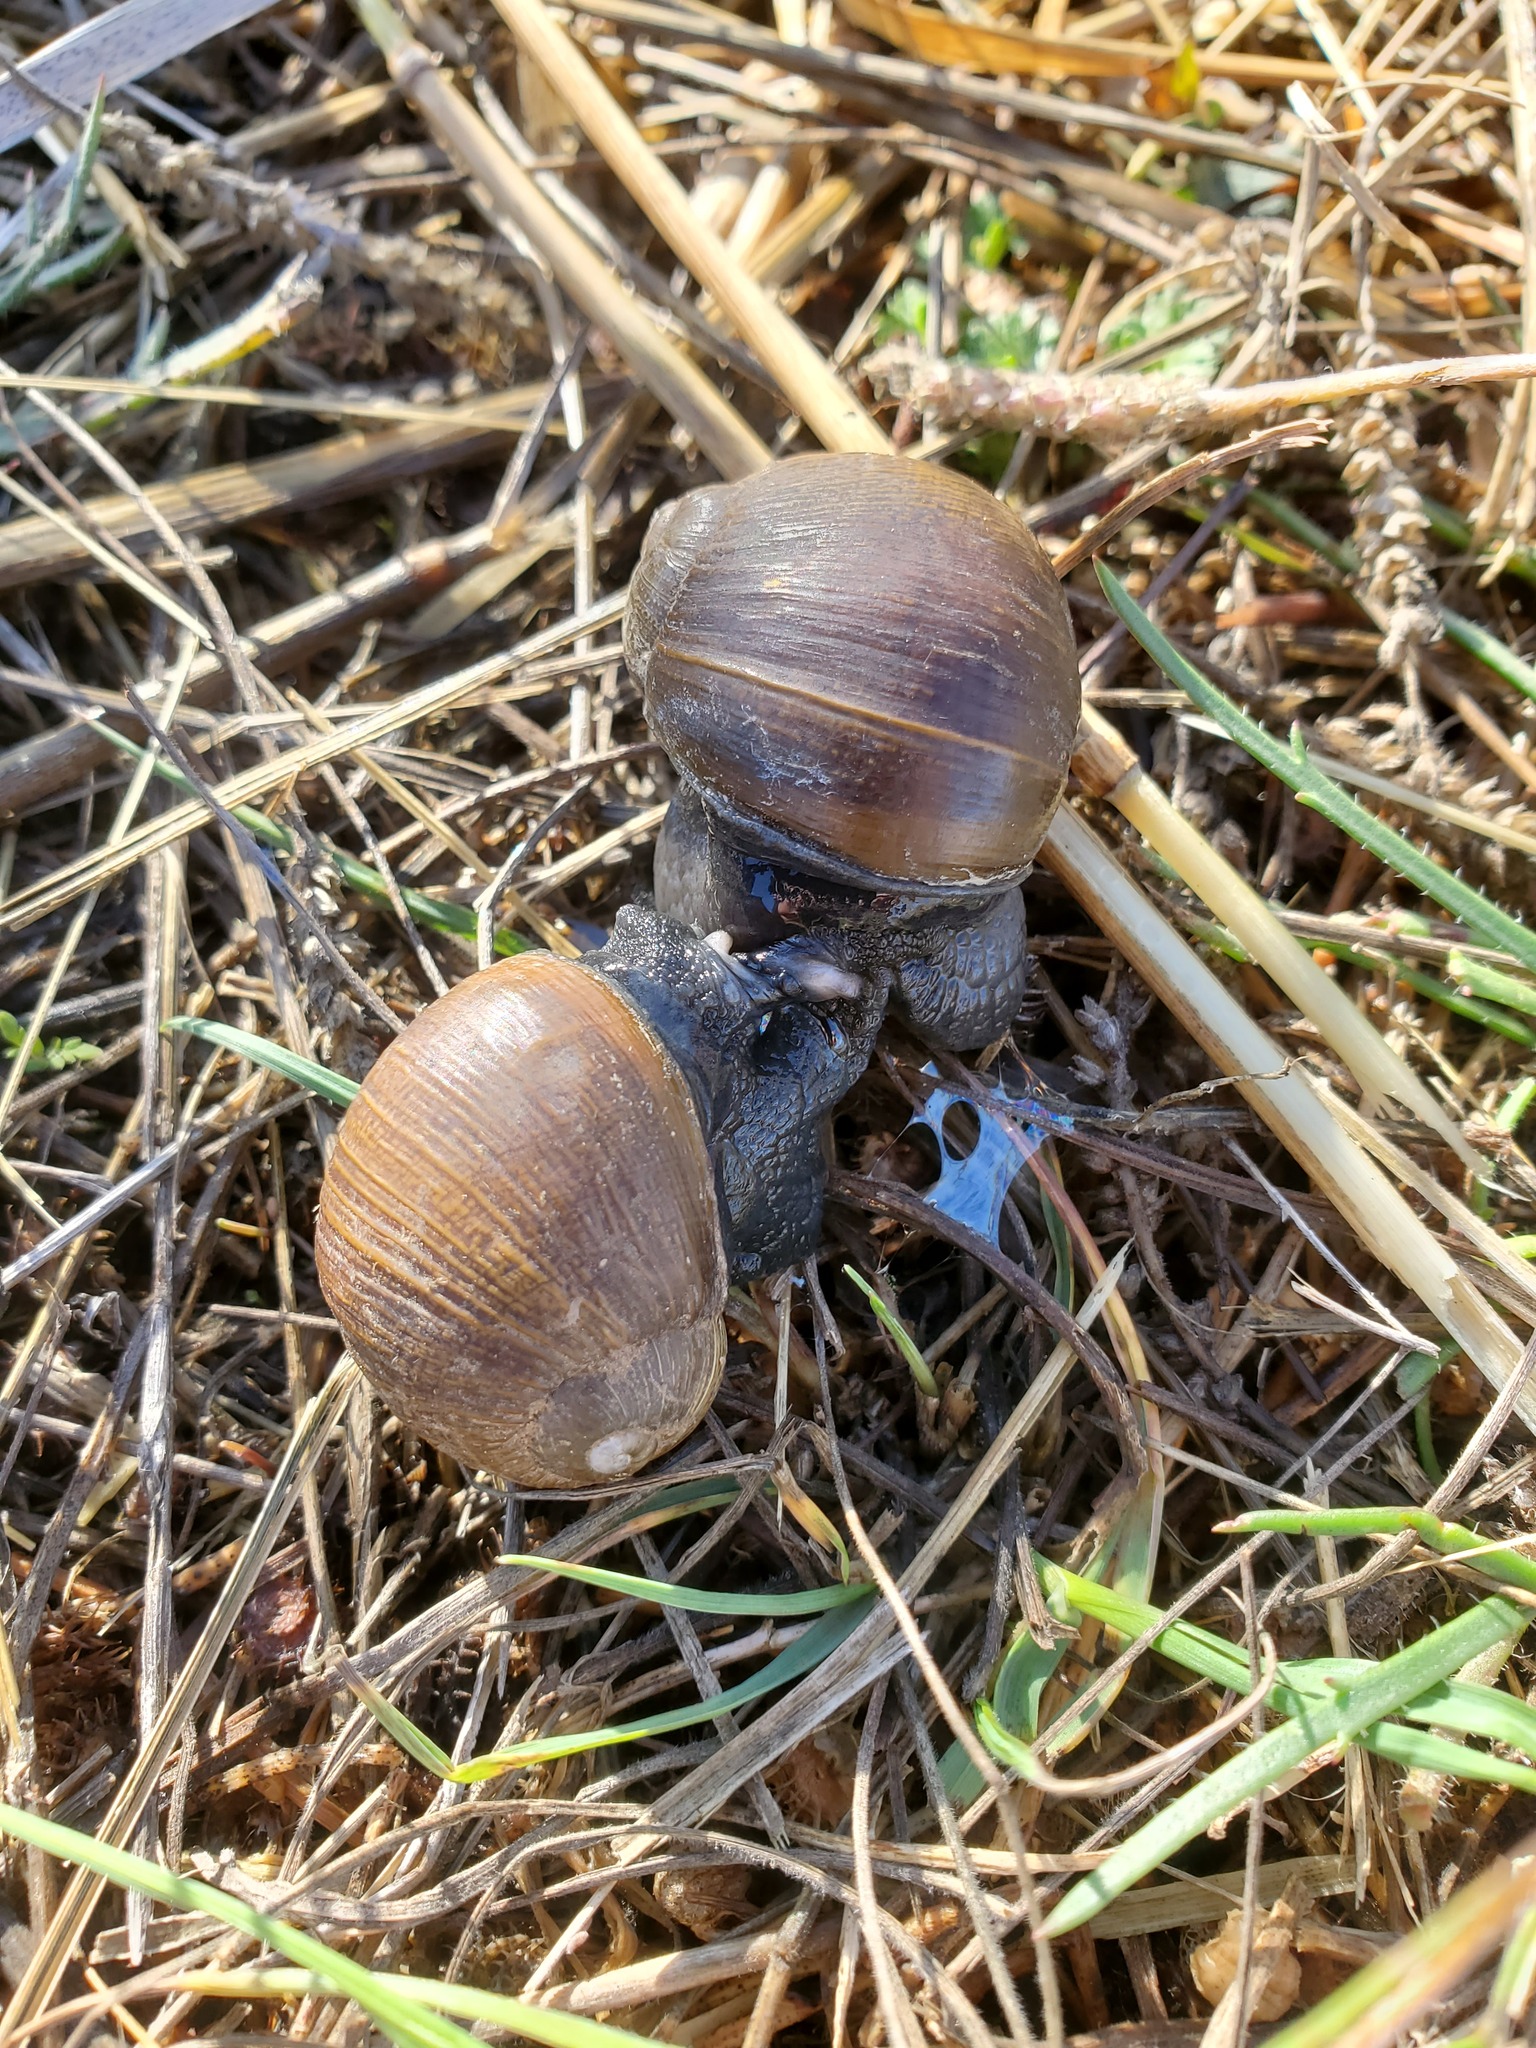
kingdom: Animalia
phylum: Mollusca
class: Gastropoda
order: Stylommatophora
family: Helicidae
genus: Cantareus
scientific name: Cantareus apertus
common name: Green gardensnail
